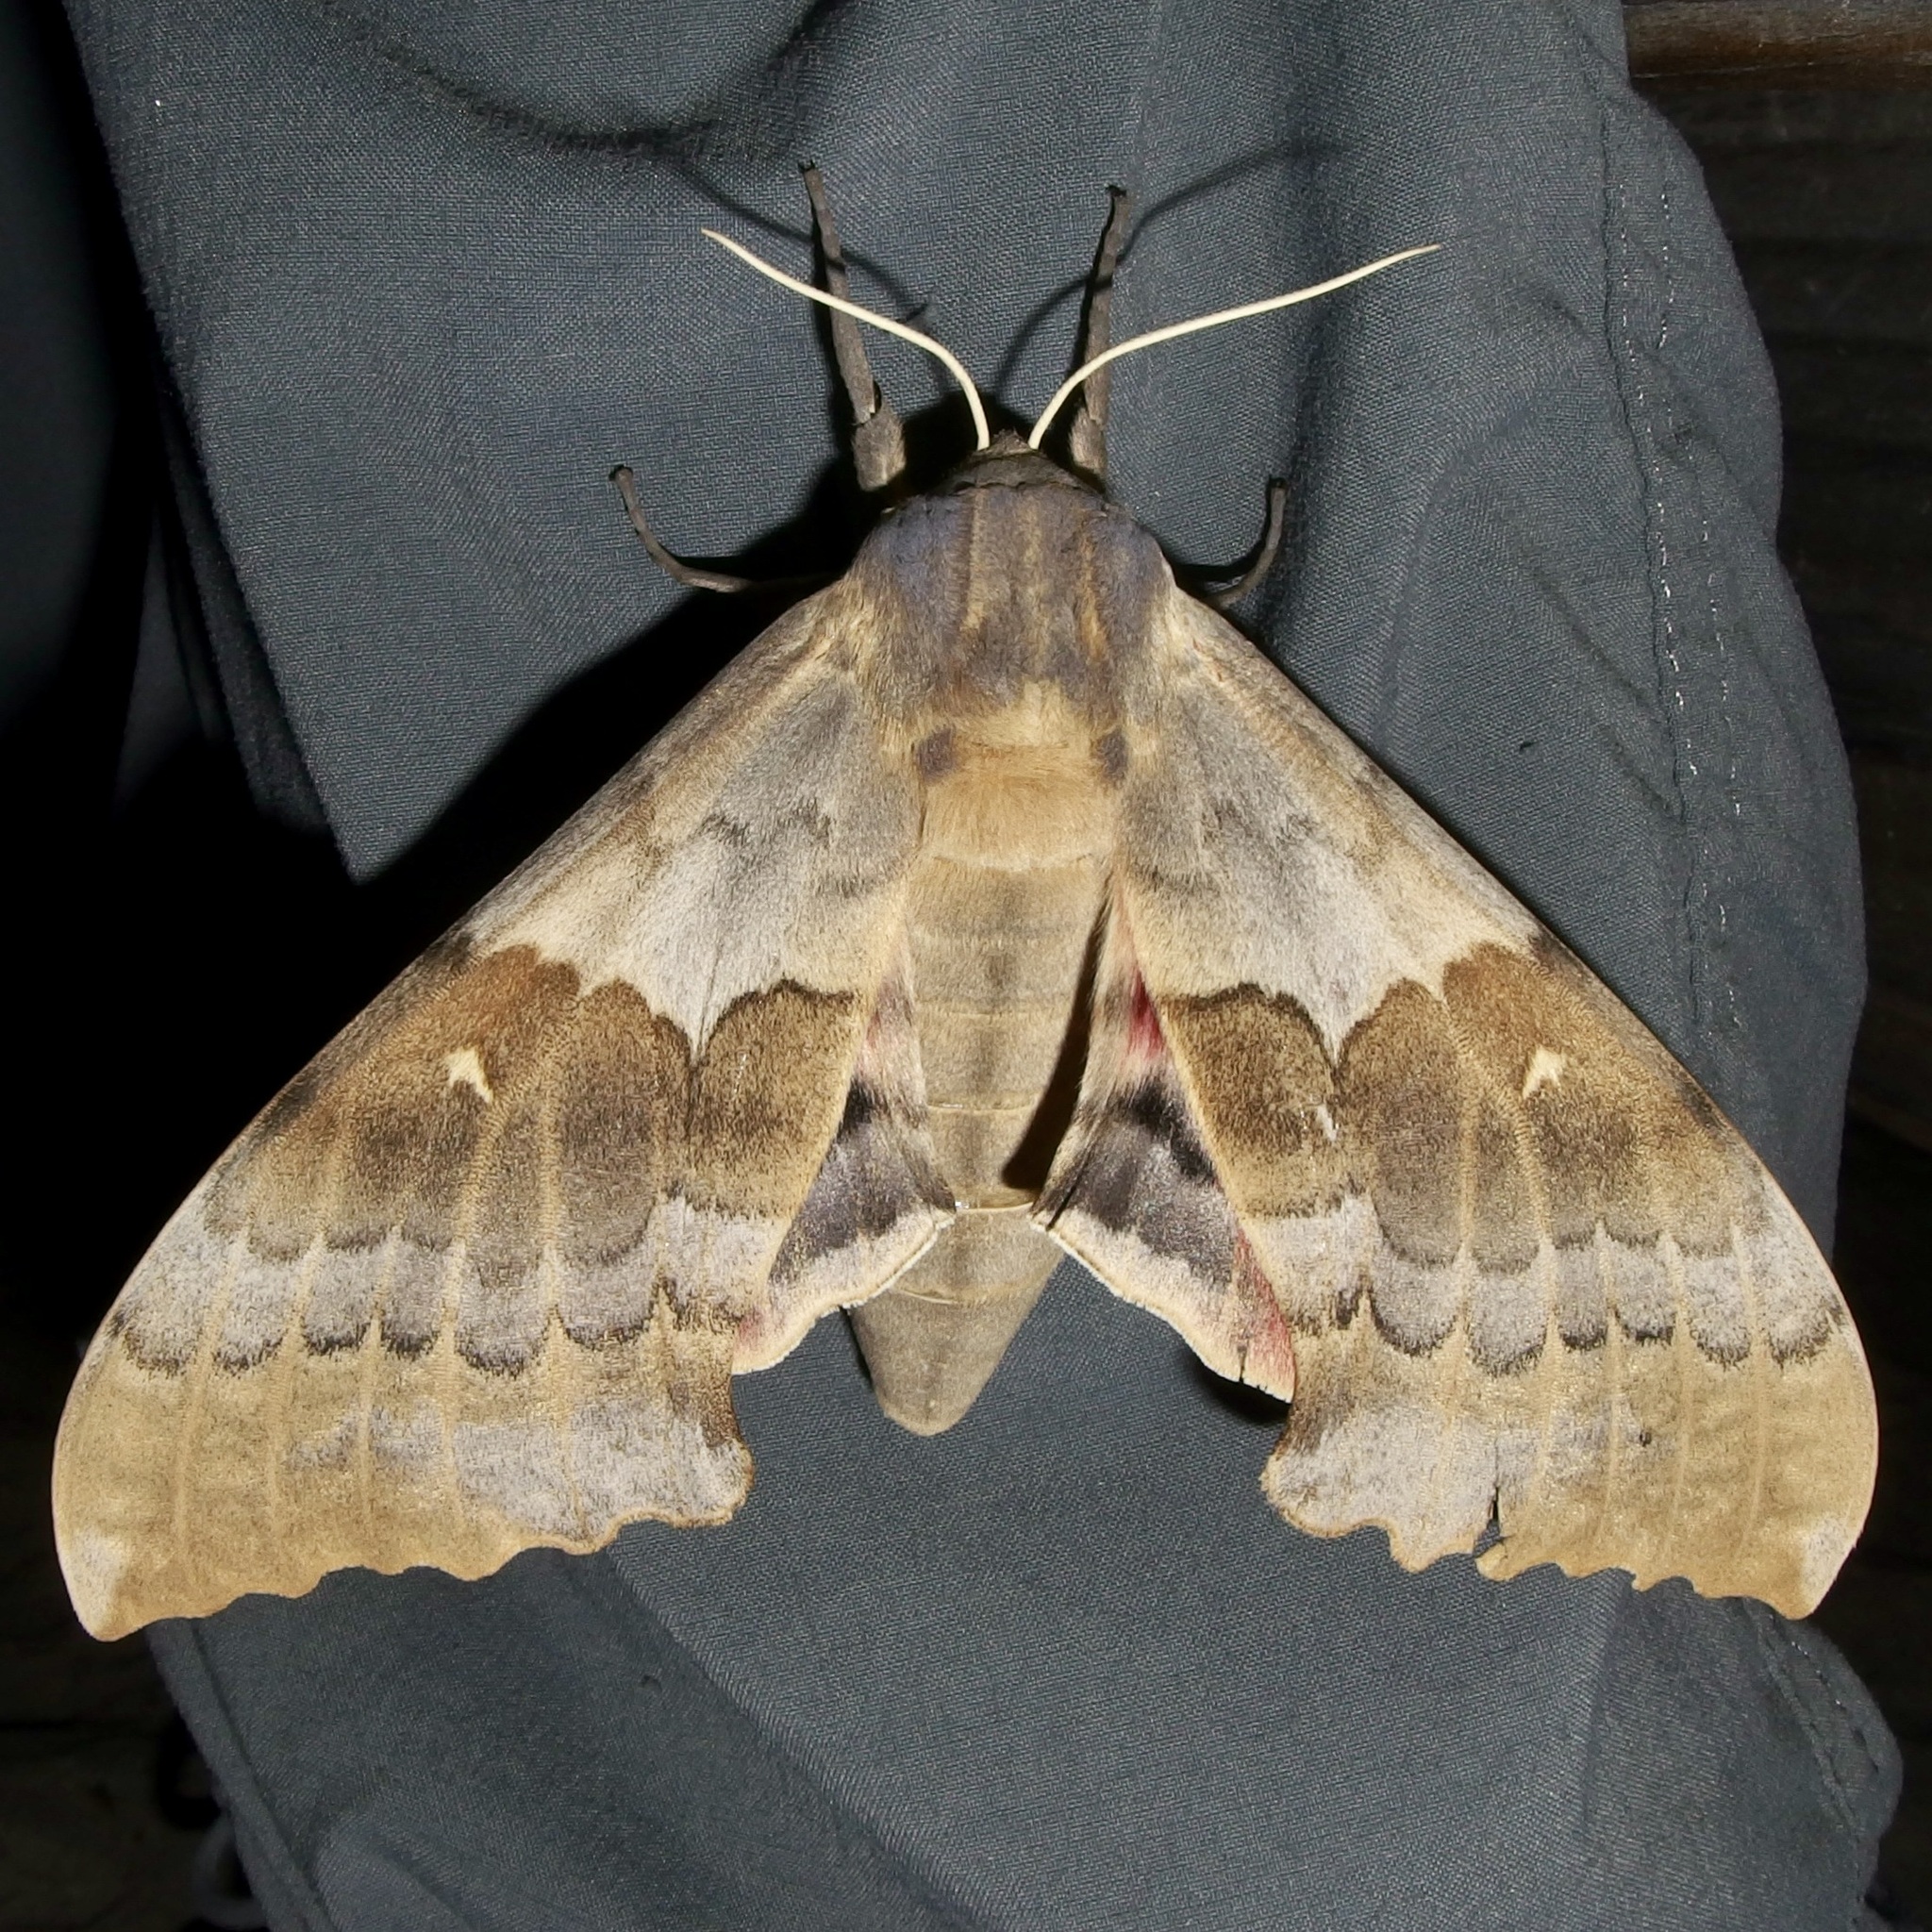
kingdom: Animalia
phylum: Arthropoda
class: Insecta
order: Lepidoptera
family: Sphingidae
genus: Pachysphinx
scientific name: Pachysphinx occidentalis
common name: Western poplar sphinx
